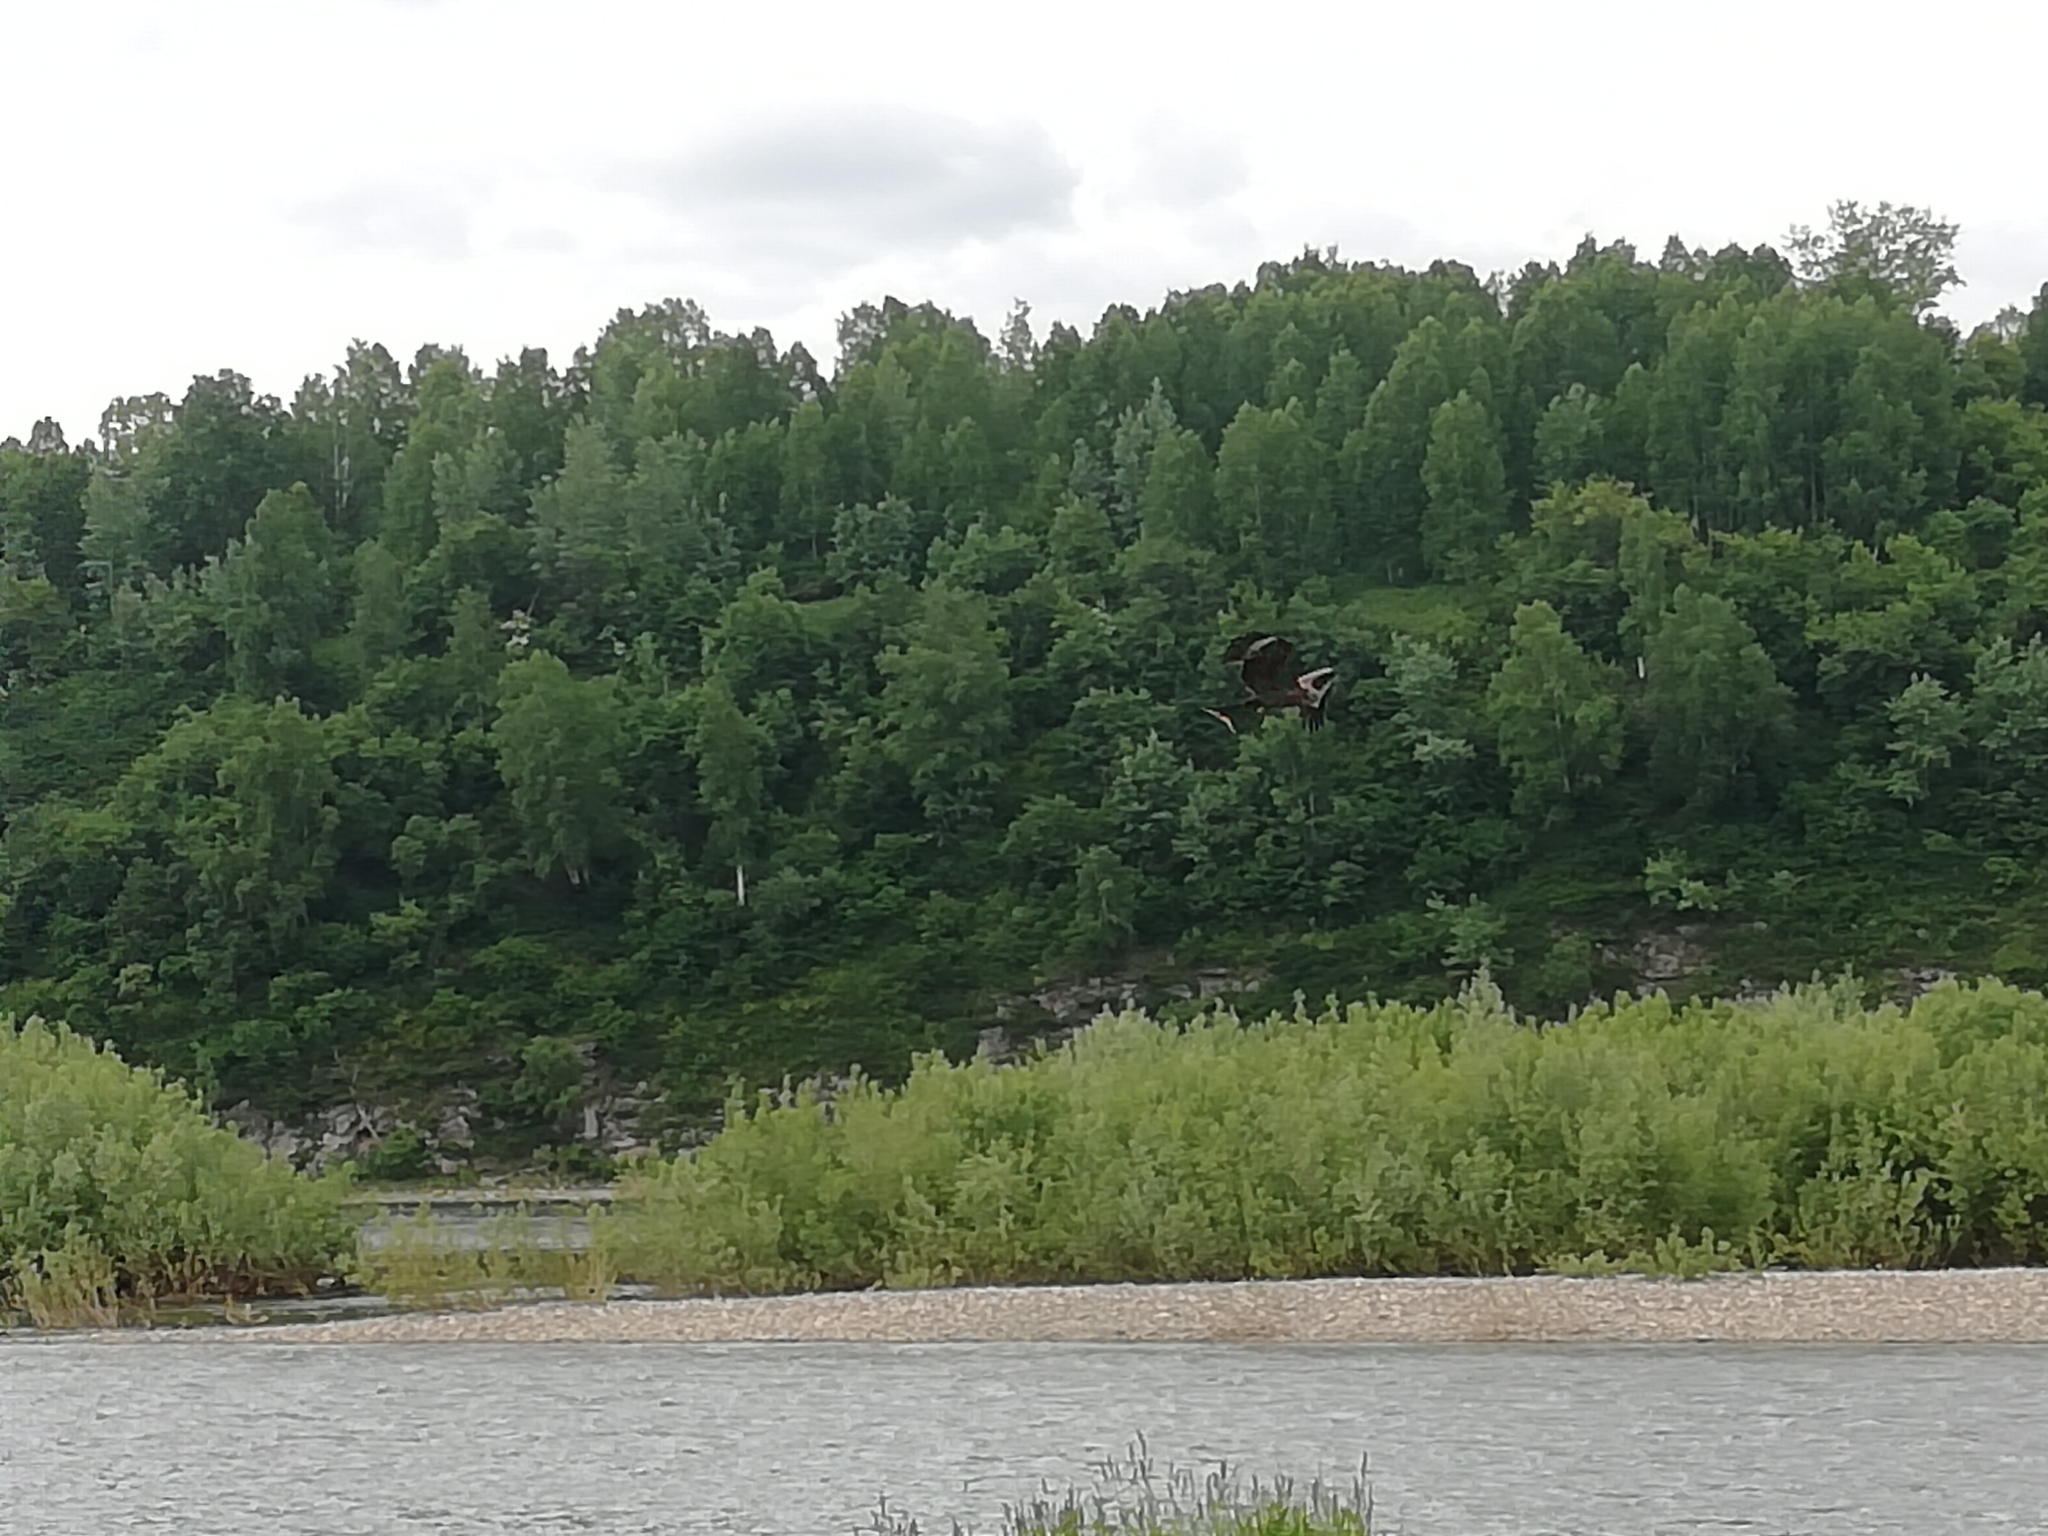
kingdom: Animalia
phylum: Chordata
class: Aves
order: Accipitriformes
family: Accipitridae
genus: Milvus
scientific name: Milvus migrans
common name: Black kite
